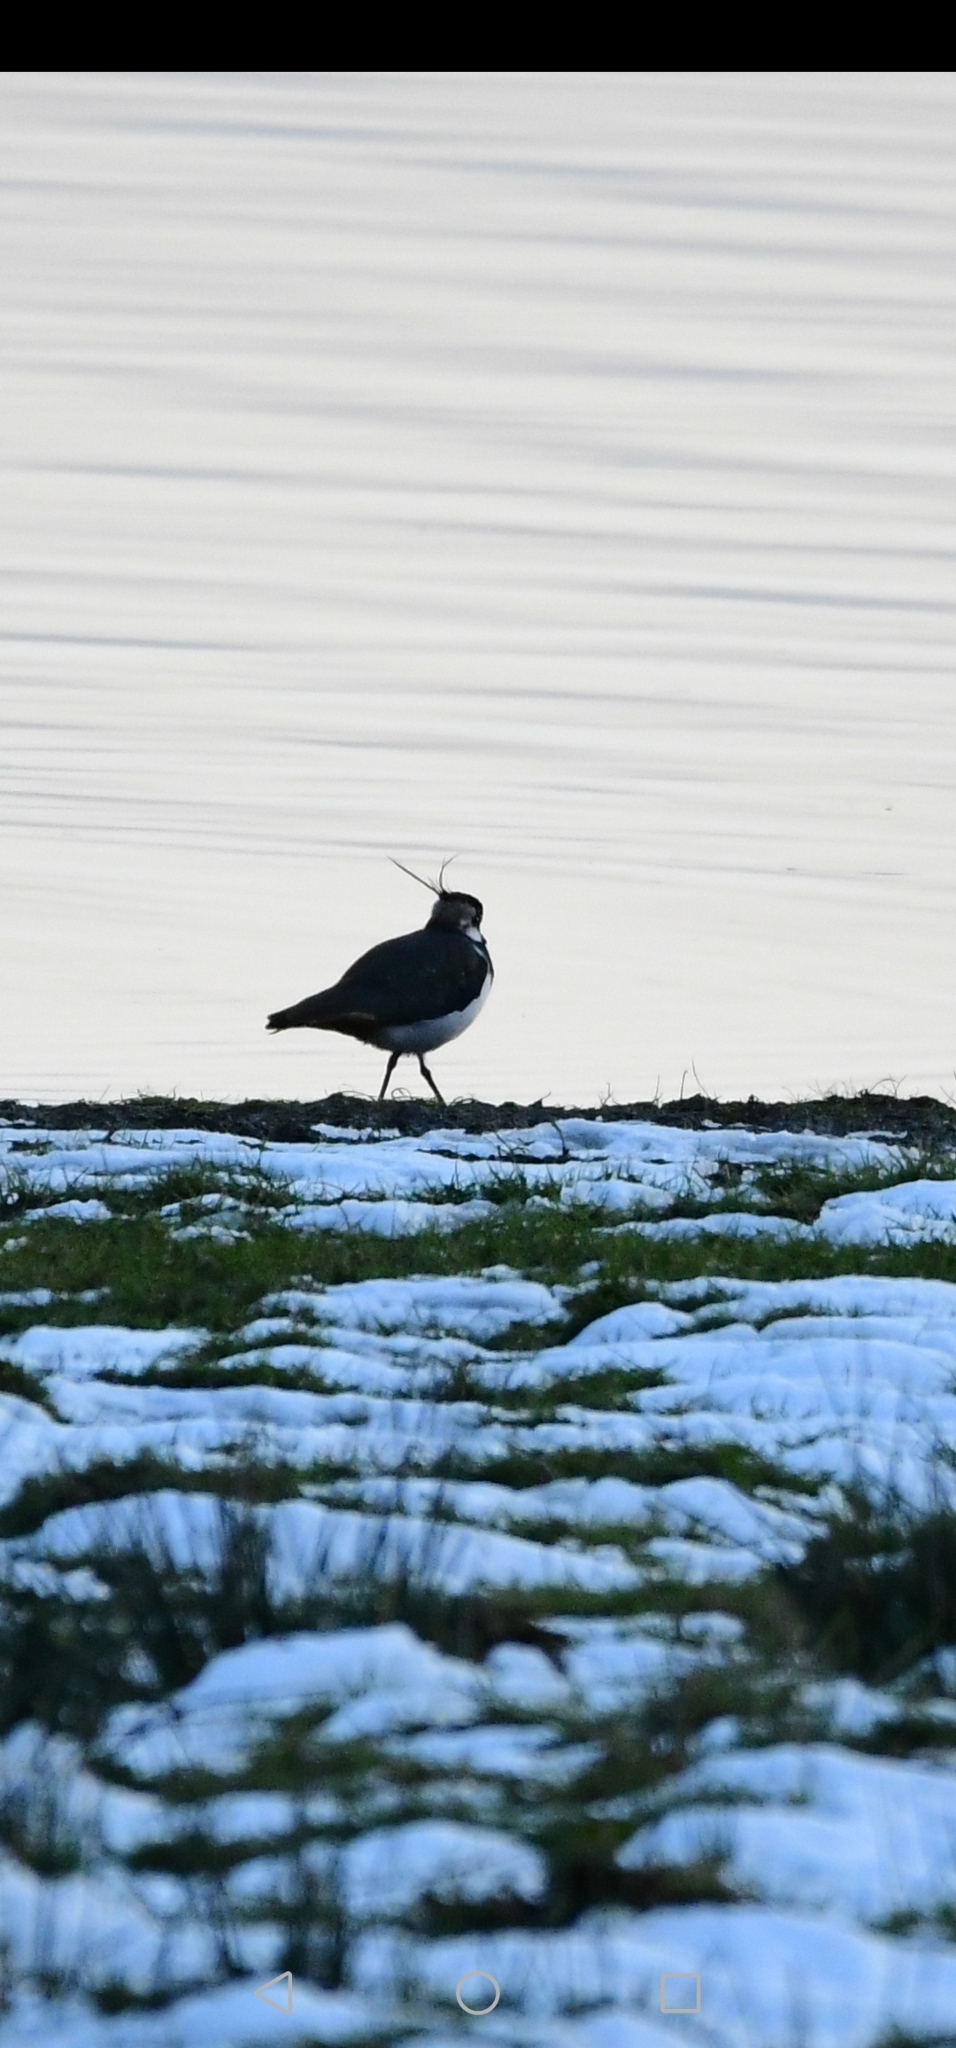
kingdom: Animalia
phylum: Chordata
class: Aves
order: Charadriiformes
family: Charadriidae
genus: Vanellus
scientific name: Vanellus vanellus
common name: Northern lapwing
